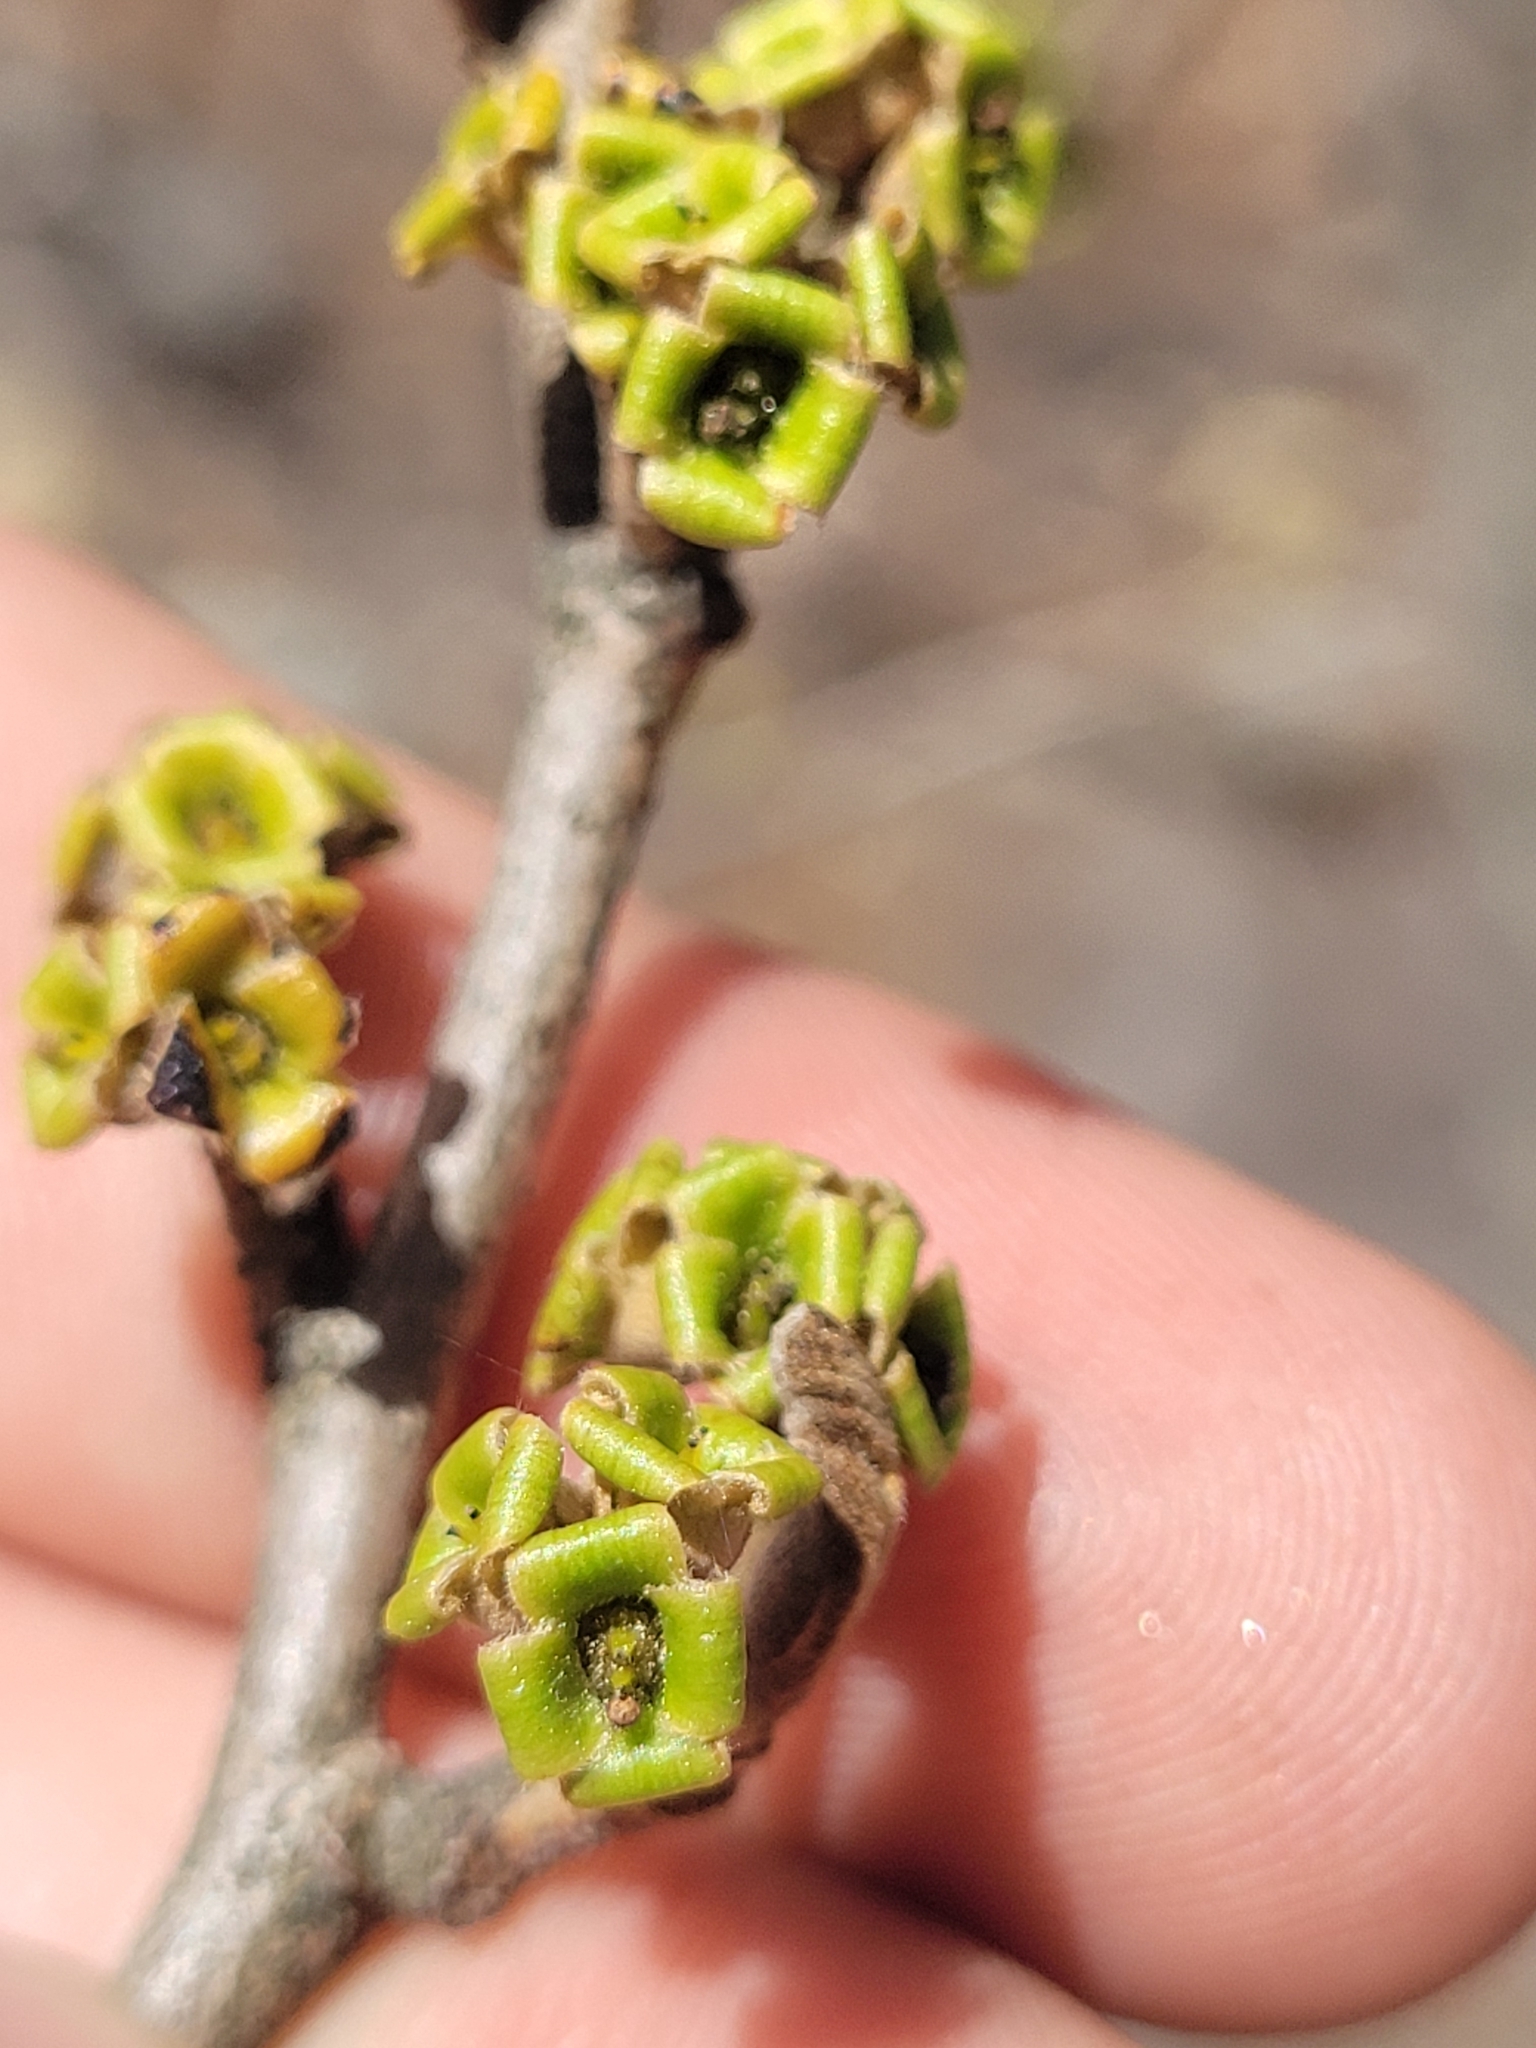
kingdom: Plantae
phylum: Tracheophyta
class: Magnoliopsida
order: Saxifragales
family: Hamamelidaceae
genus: Hamamelis
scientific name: Hamamelis virginiana
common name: Witch-hazel
